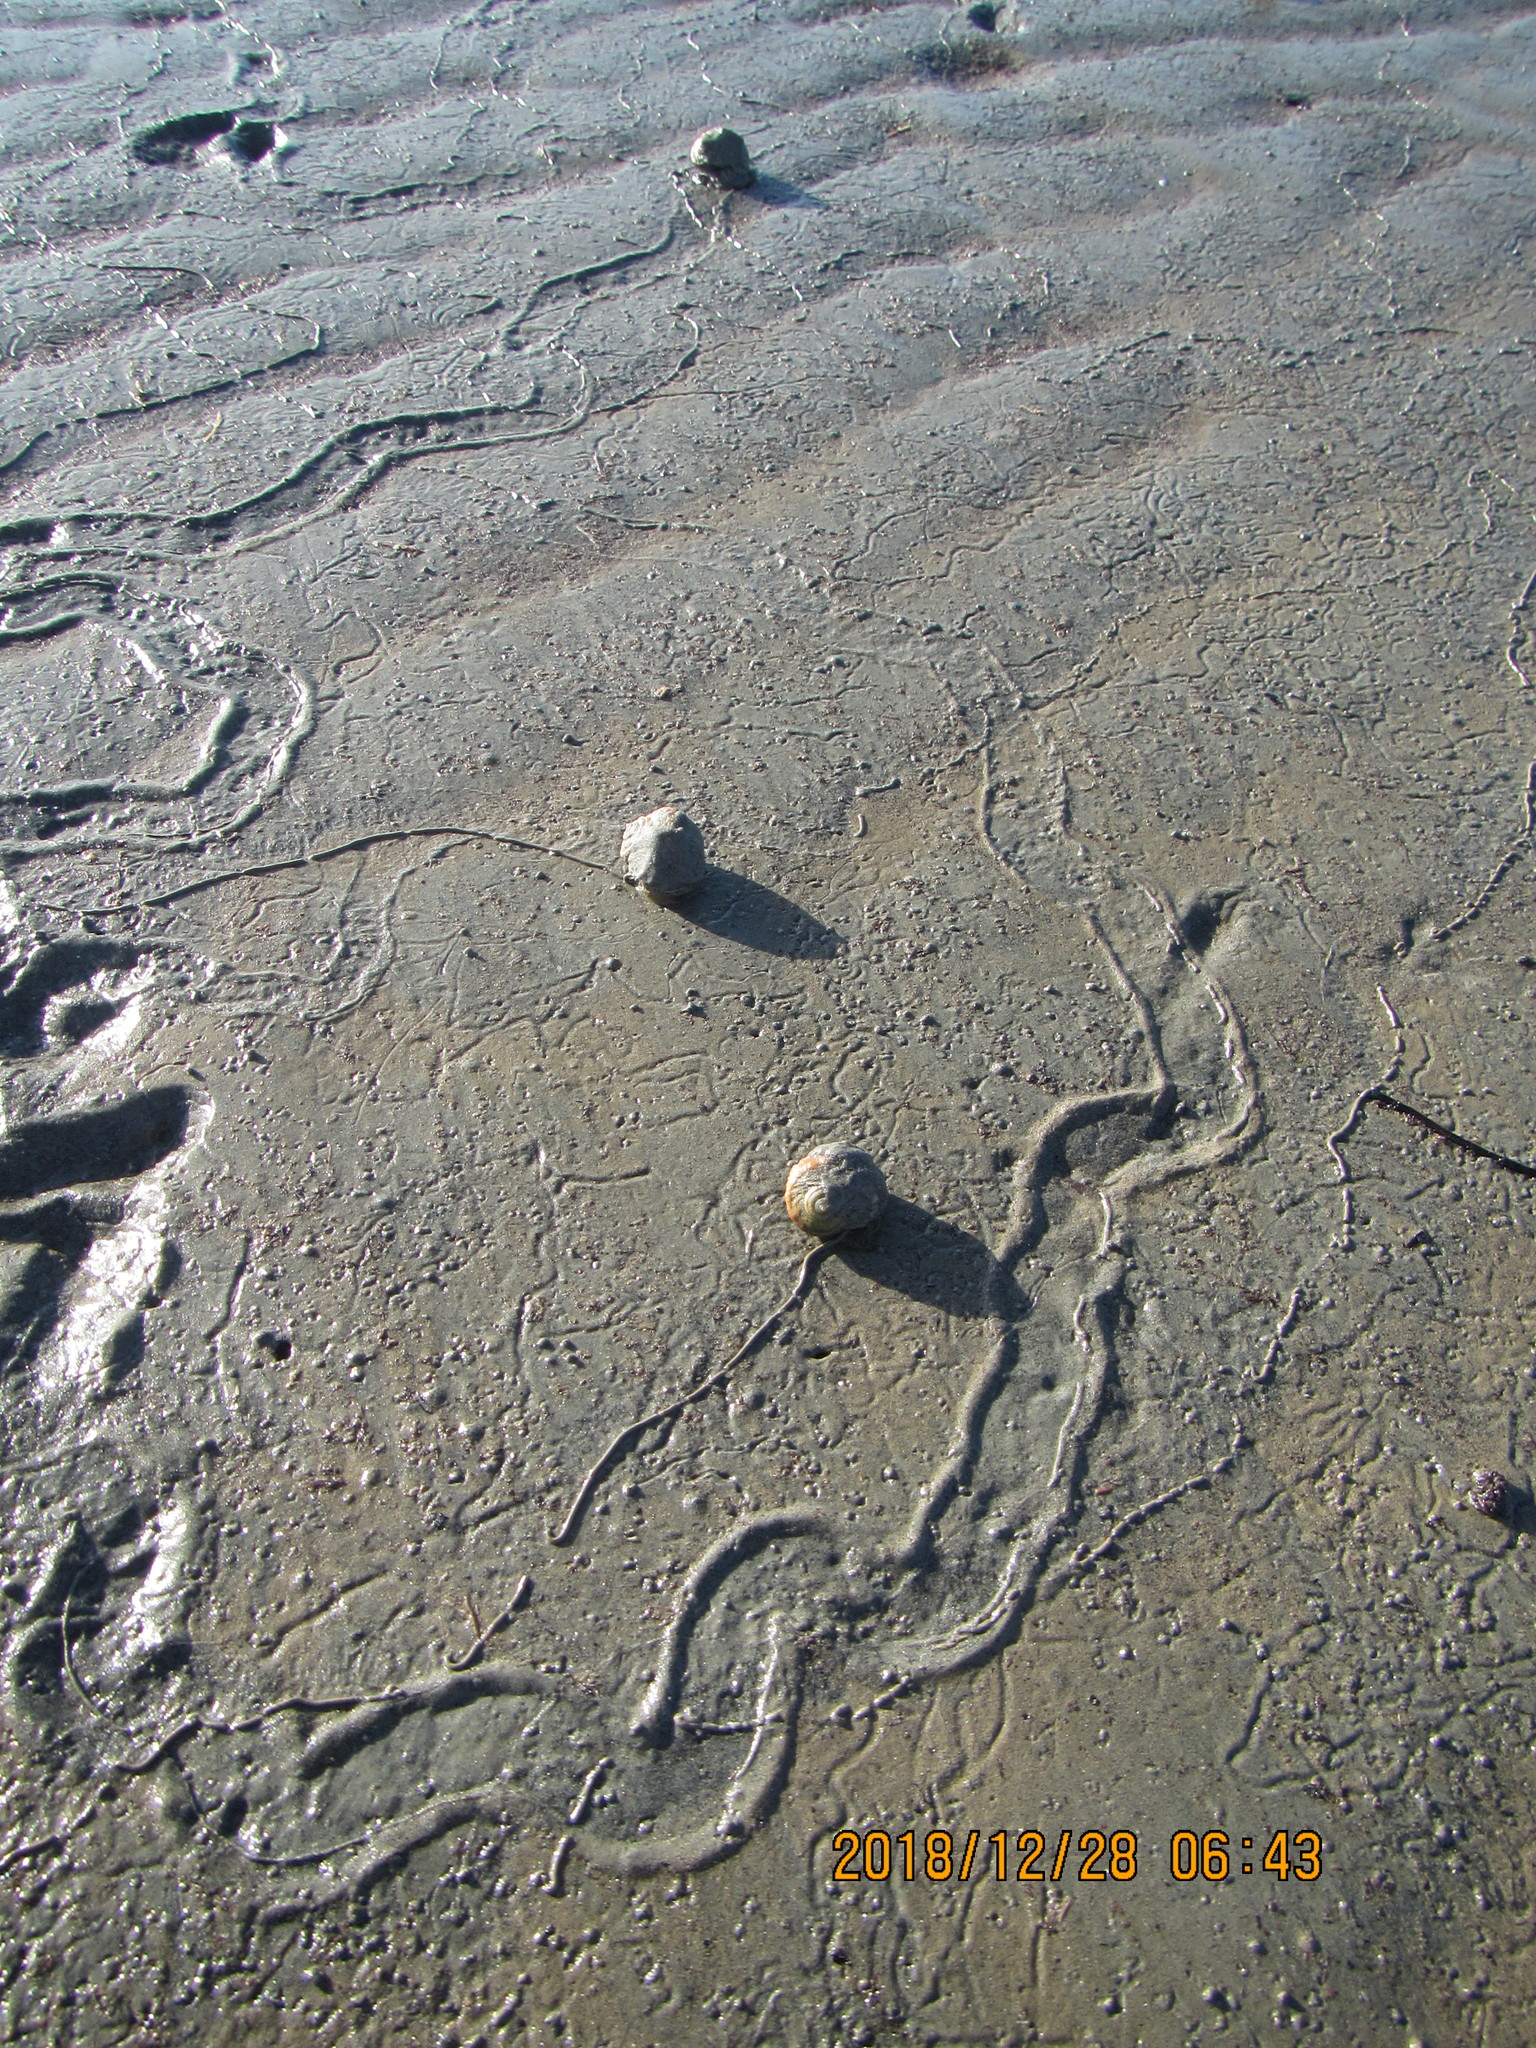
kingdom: Animalia
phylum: Mollusca
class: Gastropoda
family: Amphibolidae
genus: Amphibola
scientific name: Amphibola crenata
